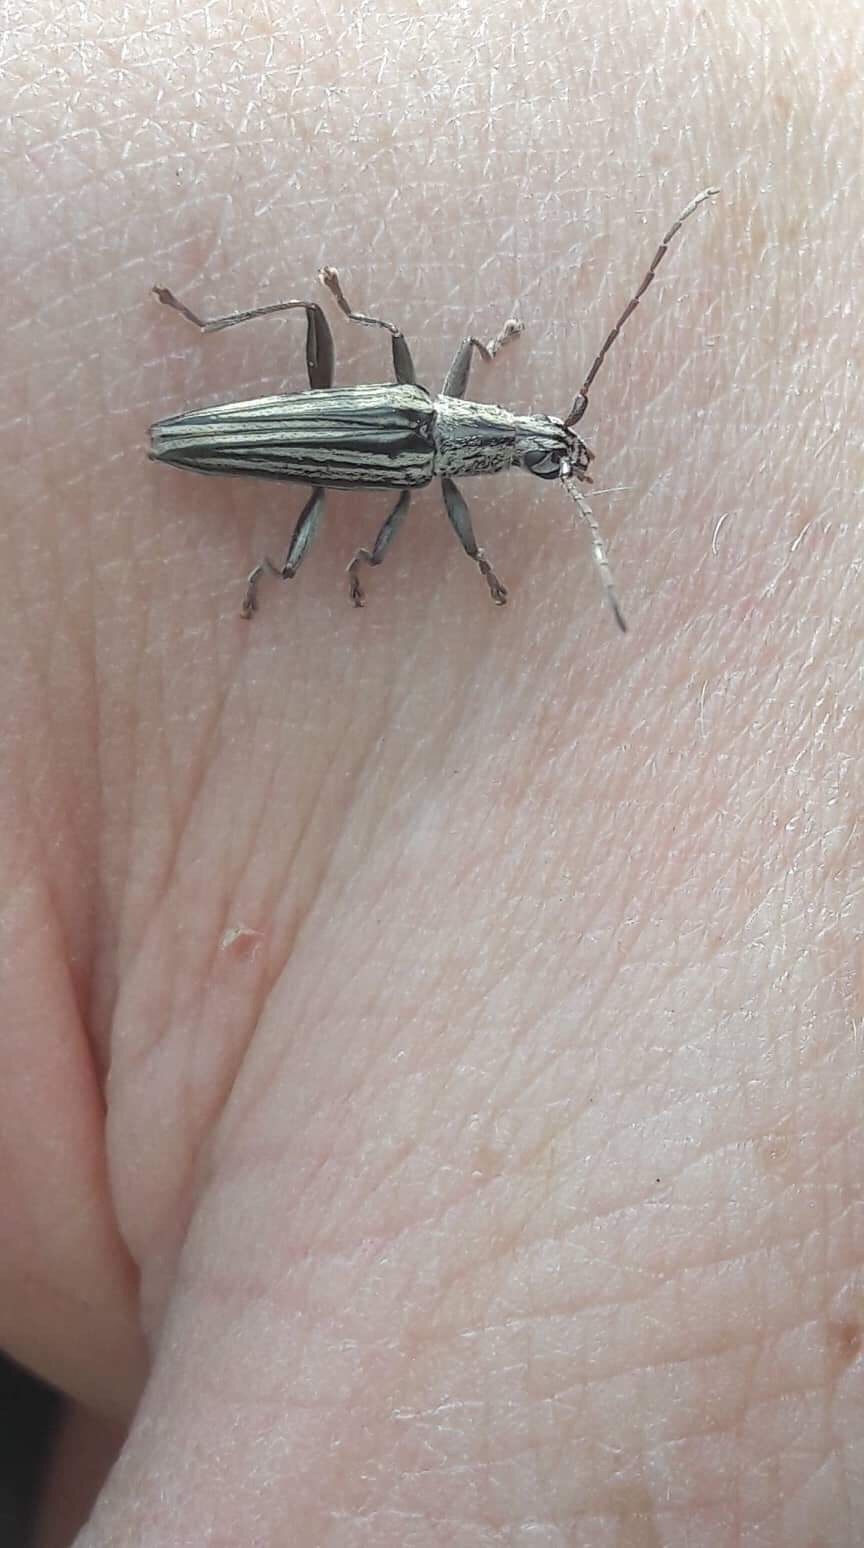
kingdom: Animalia
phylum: Arthropoda
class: Insecta
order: Coleoptera
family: Cerambycidae
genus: Coptomma
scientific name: Coptomma sulcatum
